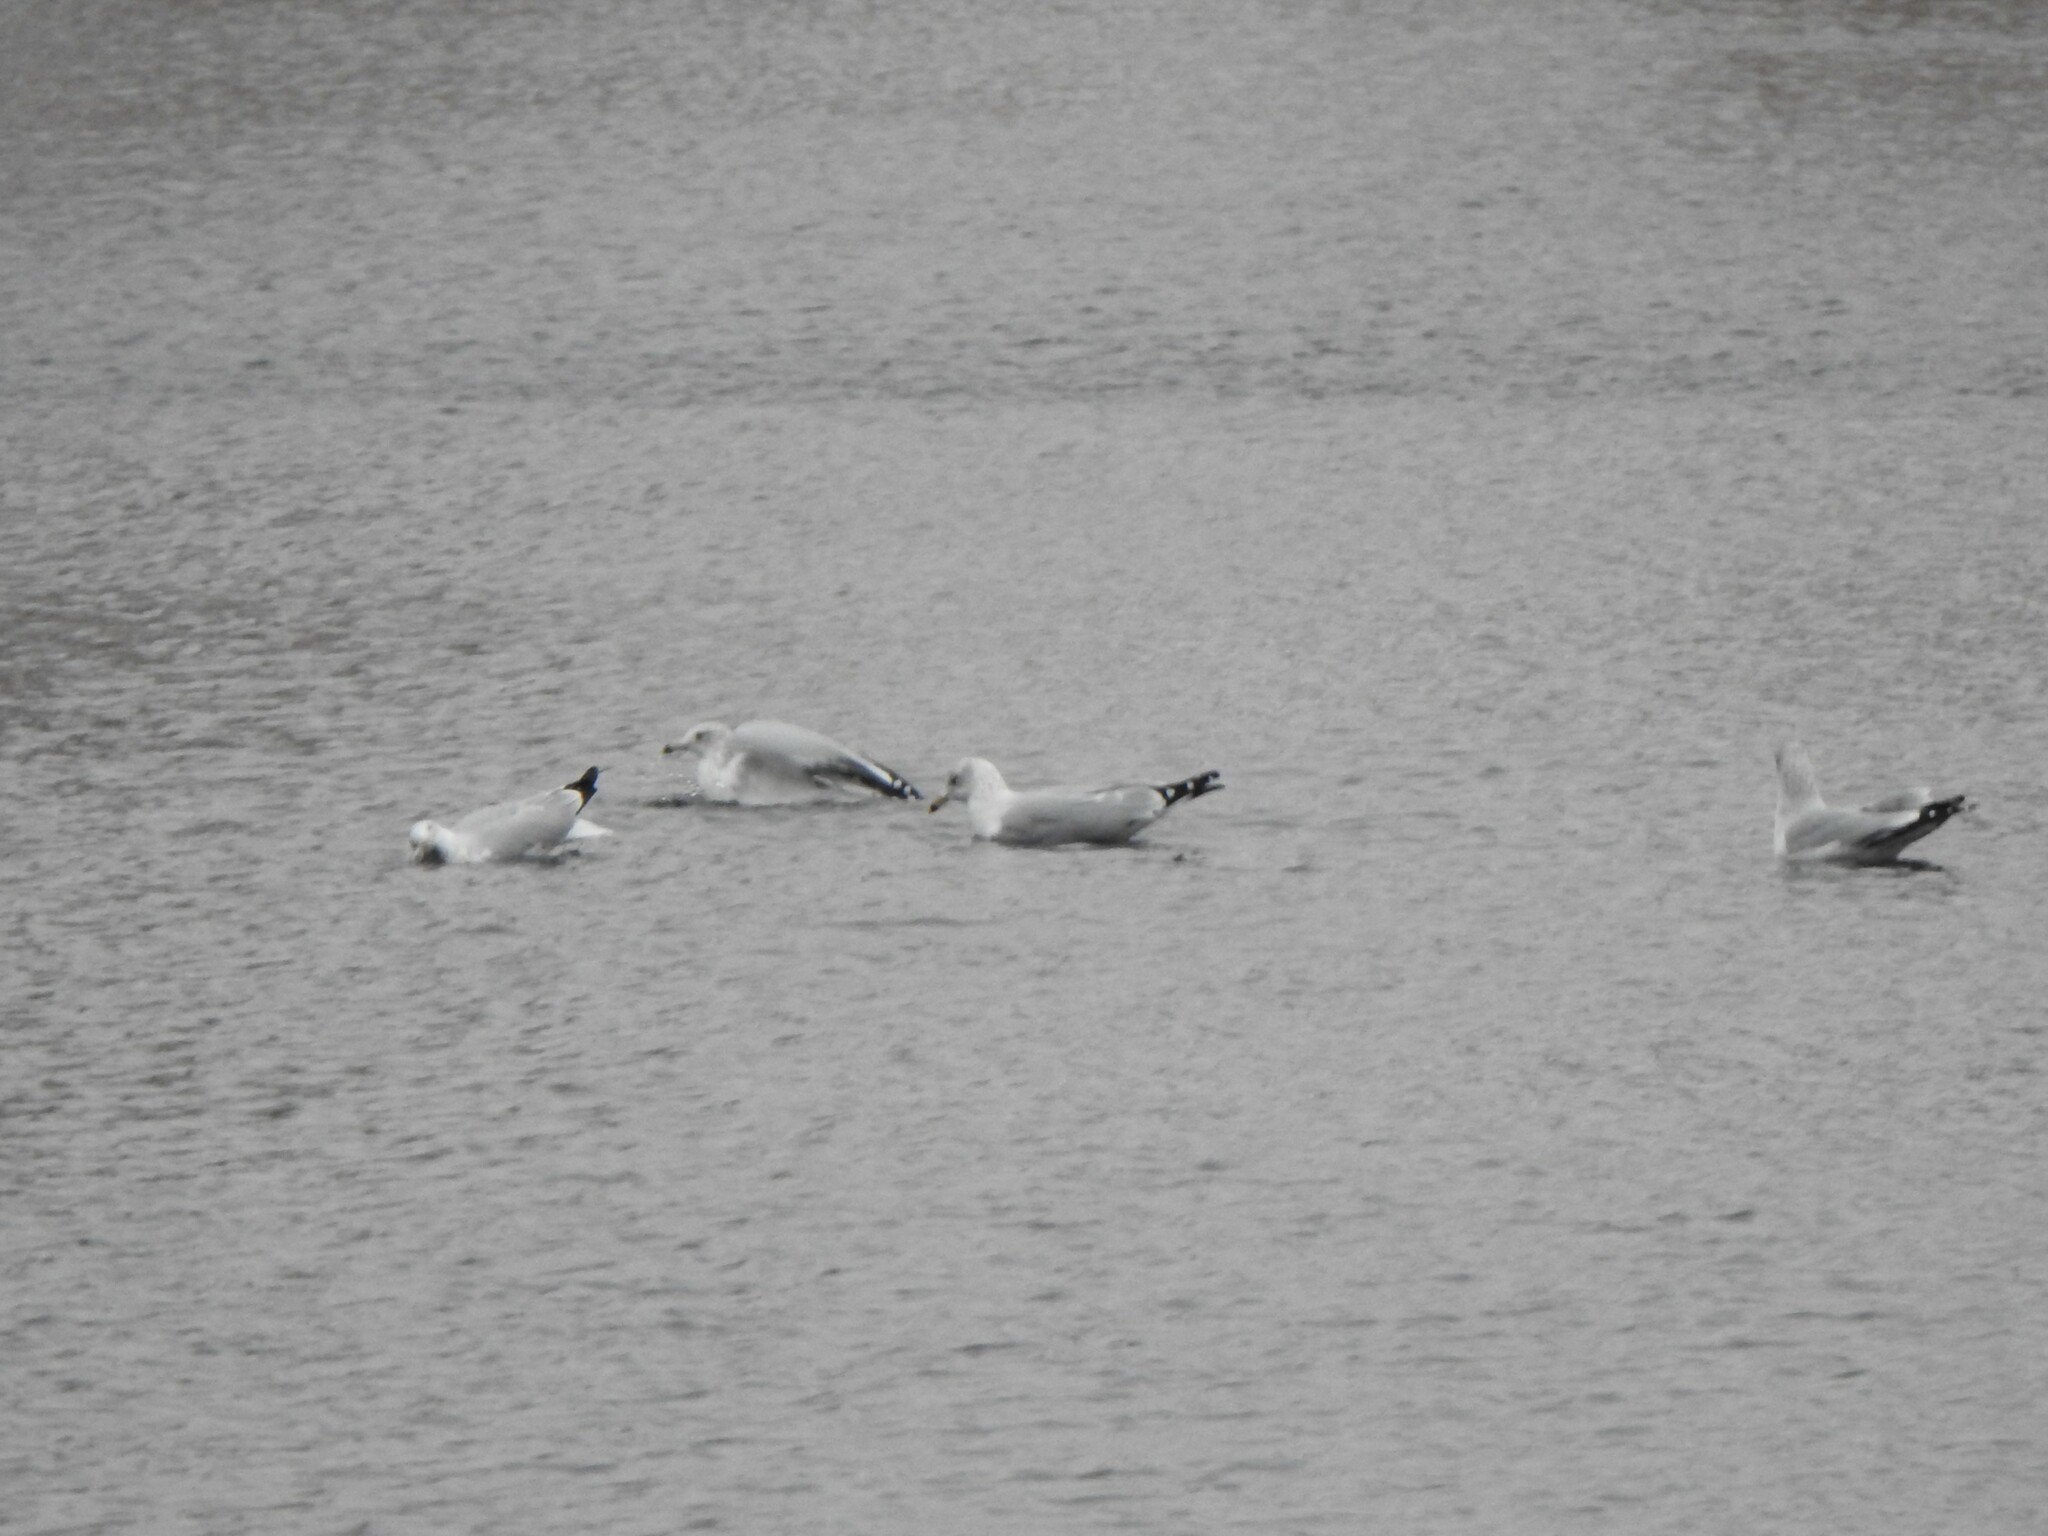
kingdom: Animalia
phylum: Chordata
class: Aves
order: Charadriiformes
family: Laridae
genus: Larus
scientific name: Larus delawarensis
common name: Ring-billed gull
